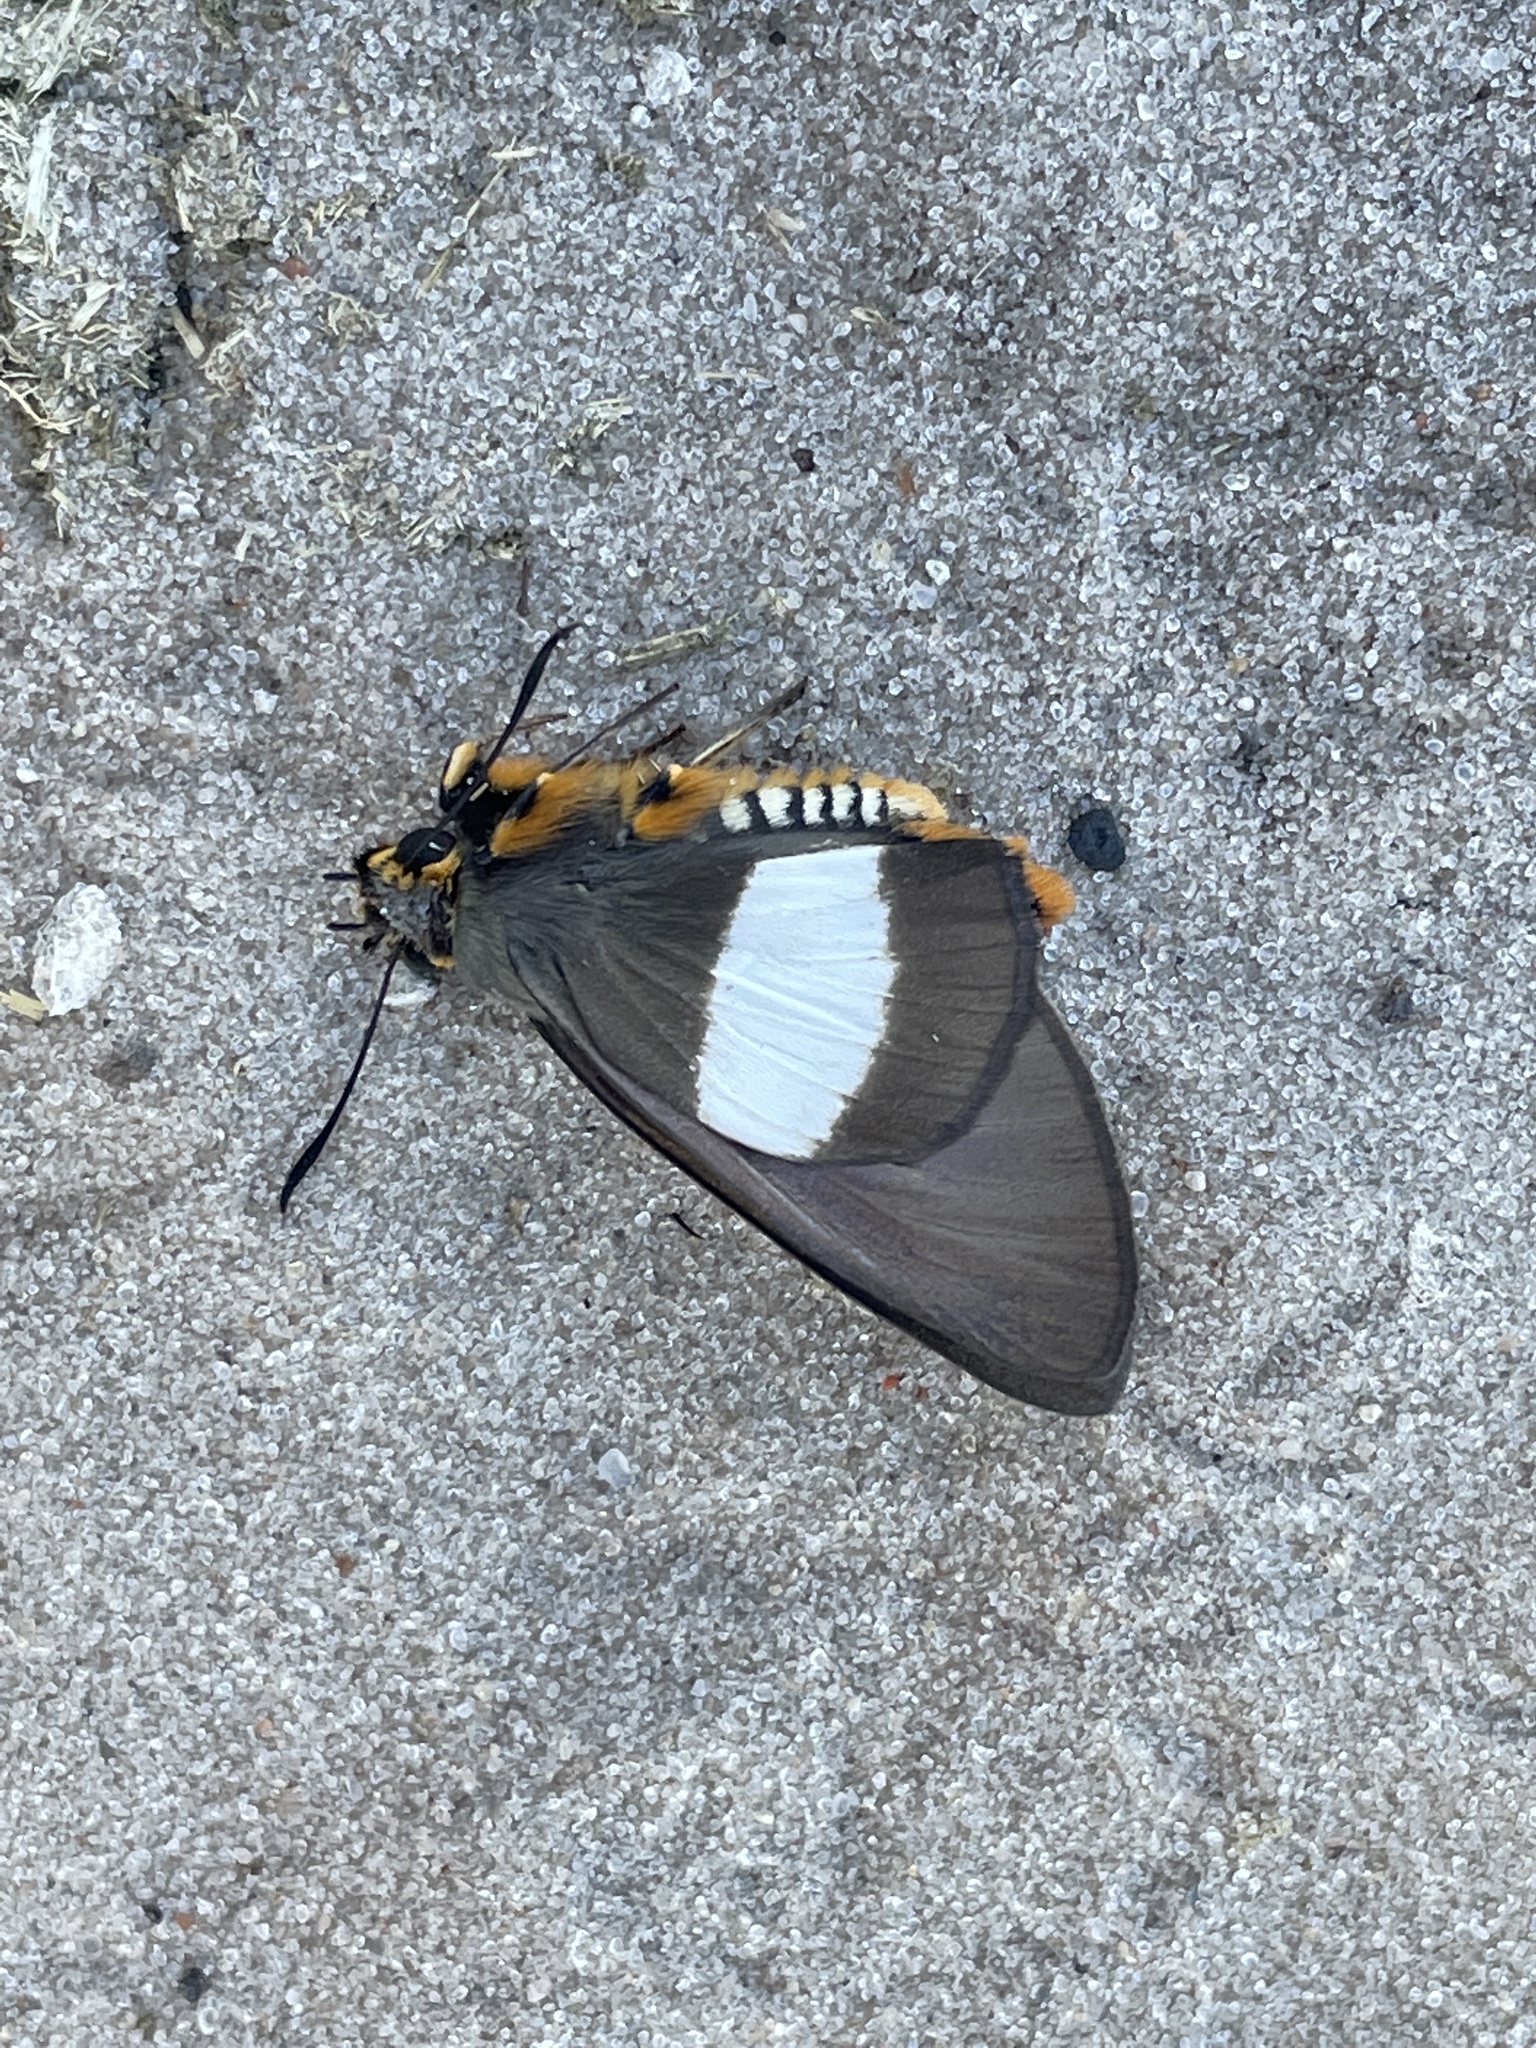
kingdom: Animalia
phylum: Arthropoda
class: Insecta
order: Lepidoptera
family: Hesperiidae
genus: Coeliades
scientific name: Coeliades forestan
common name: Striped policeman
